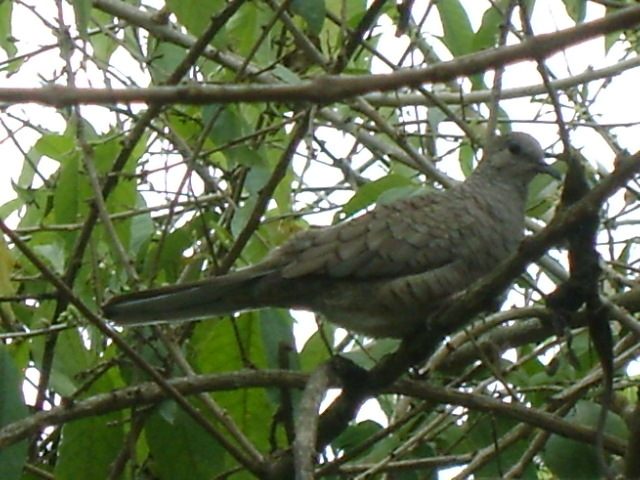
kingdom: Animalia
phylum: Chordata
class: Aves
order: Columbiformes
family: Columbidae
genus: Columbina
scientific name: Columbina inca
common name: Inca dove
